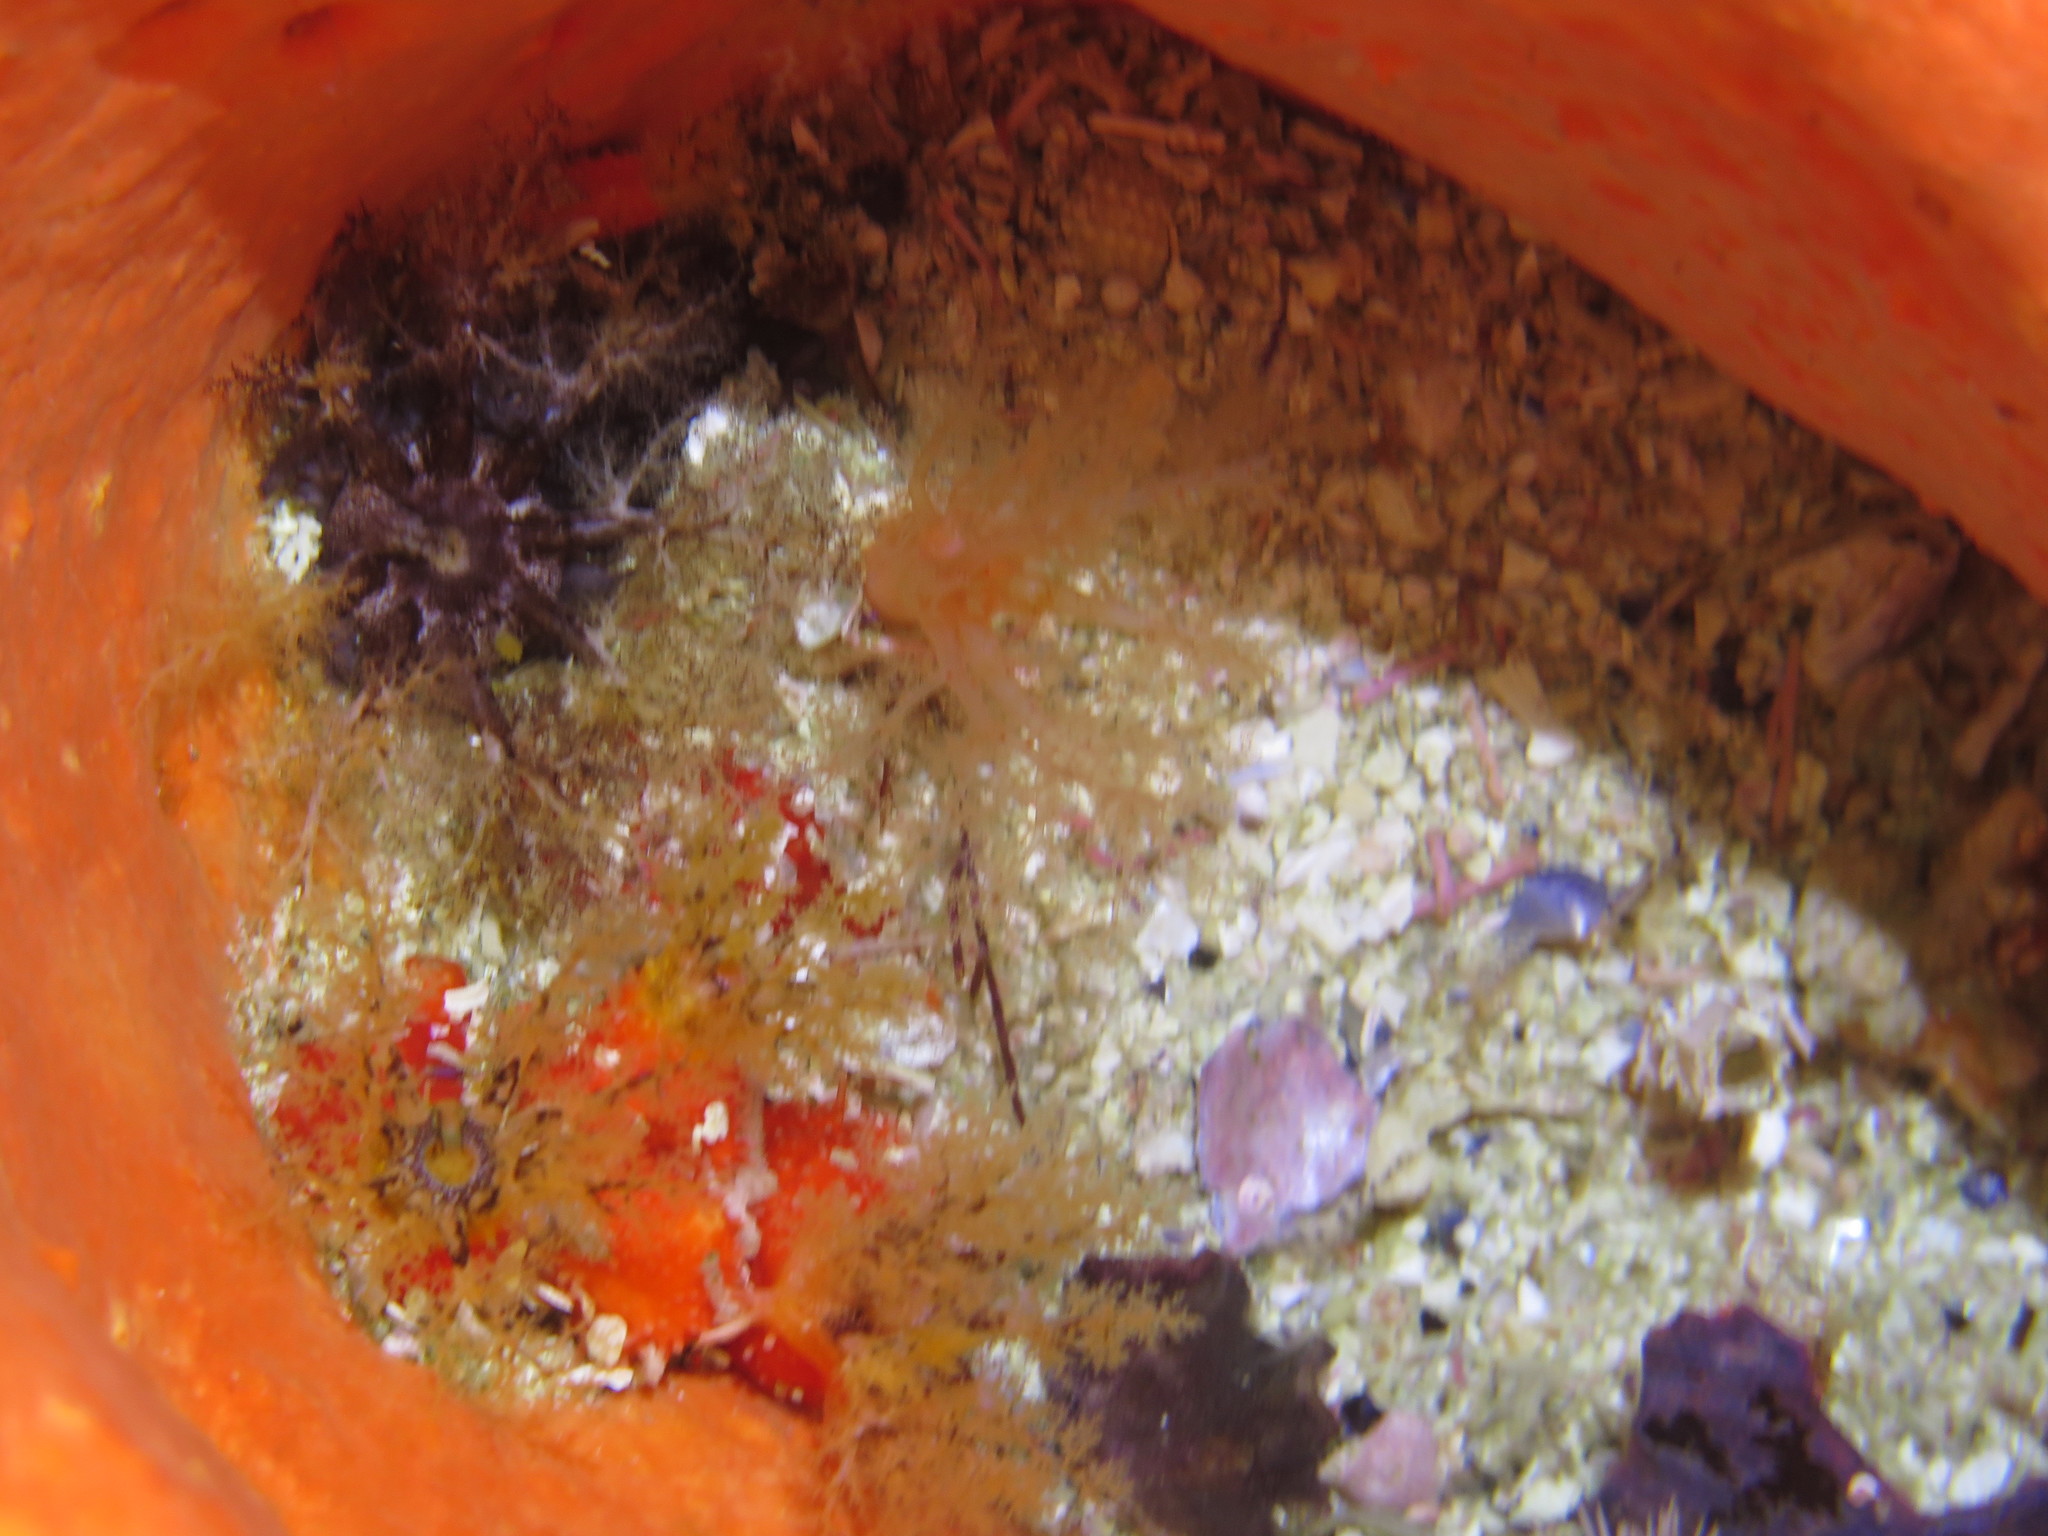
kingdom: Animalia
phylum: Echinodermata
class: Holothuroidea
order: Dendrochirotida
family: Phyllophoridae
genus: Thyone
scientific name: Thyone aurea
